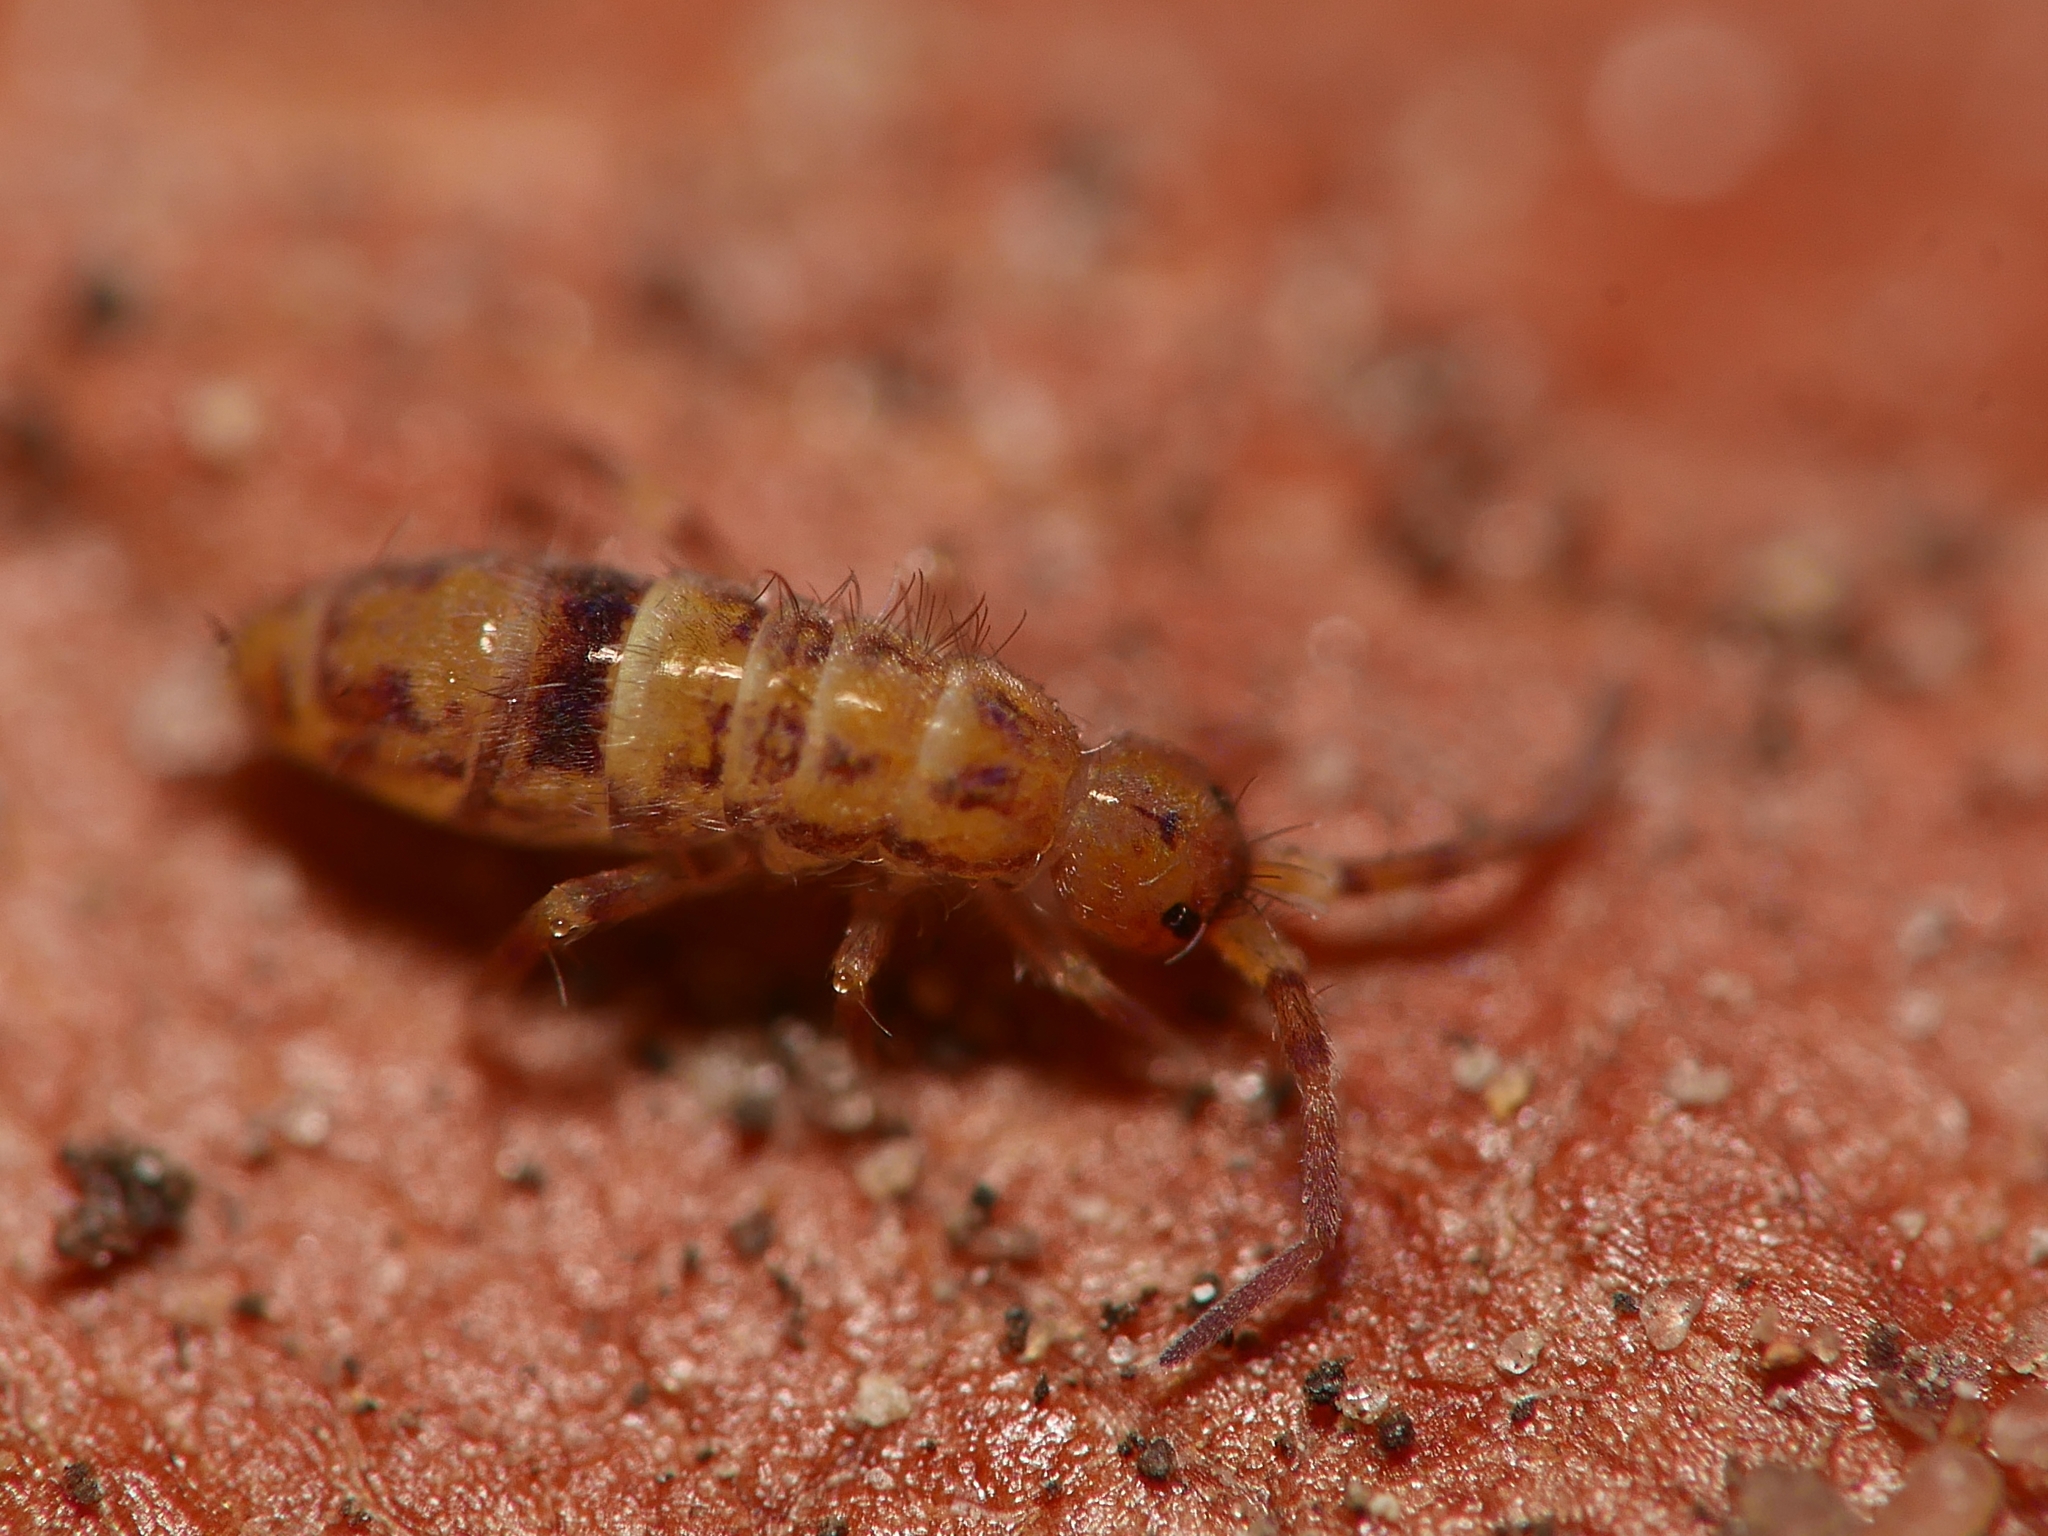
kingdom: Animalia
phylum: Arthropoda
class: Collembola
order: Entomobryomorpha
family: Orchesellidae
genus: Orchesella
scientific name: Orchesella cincta
